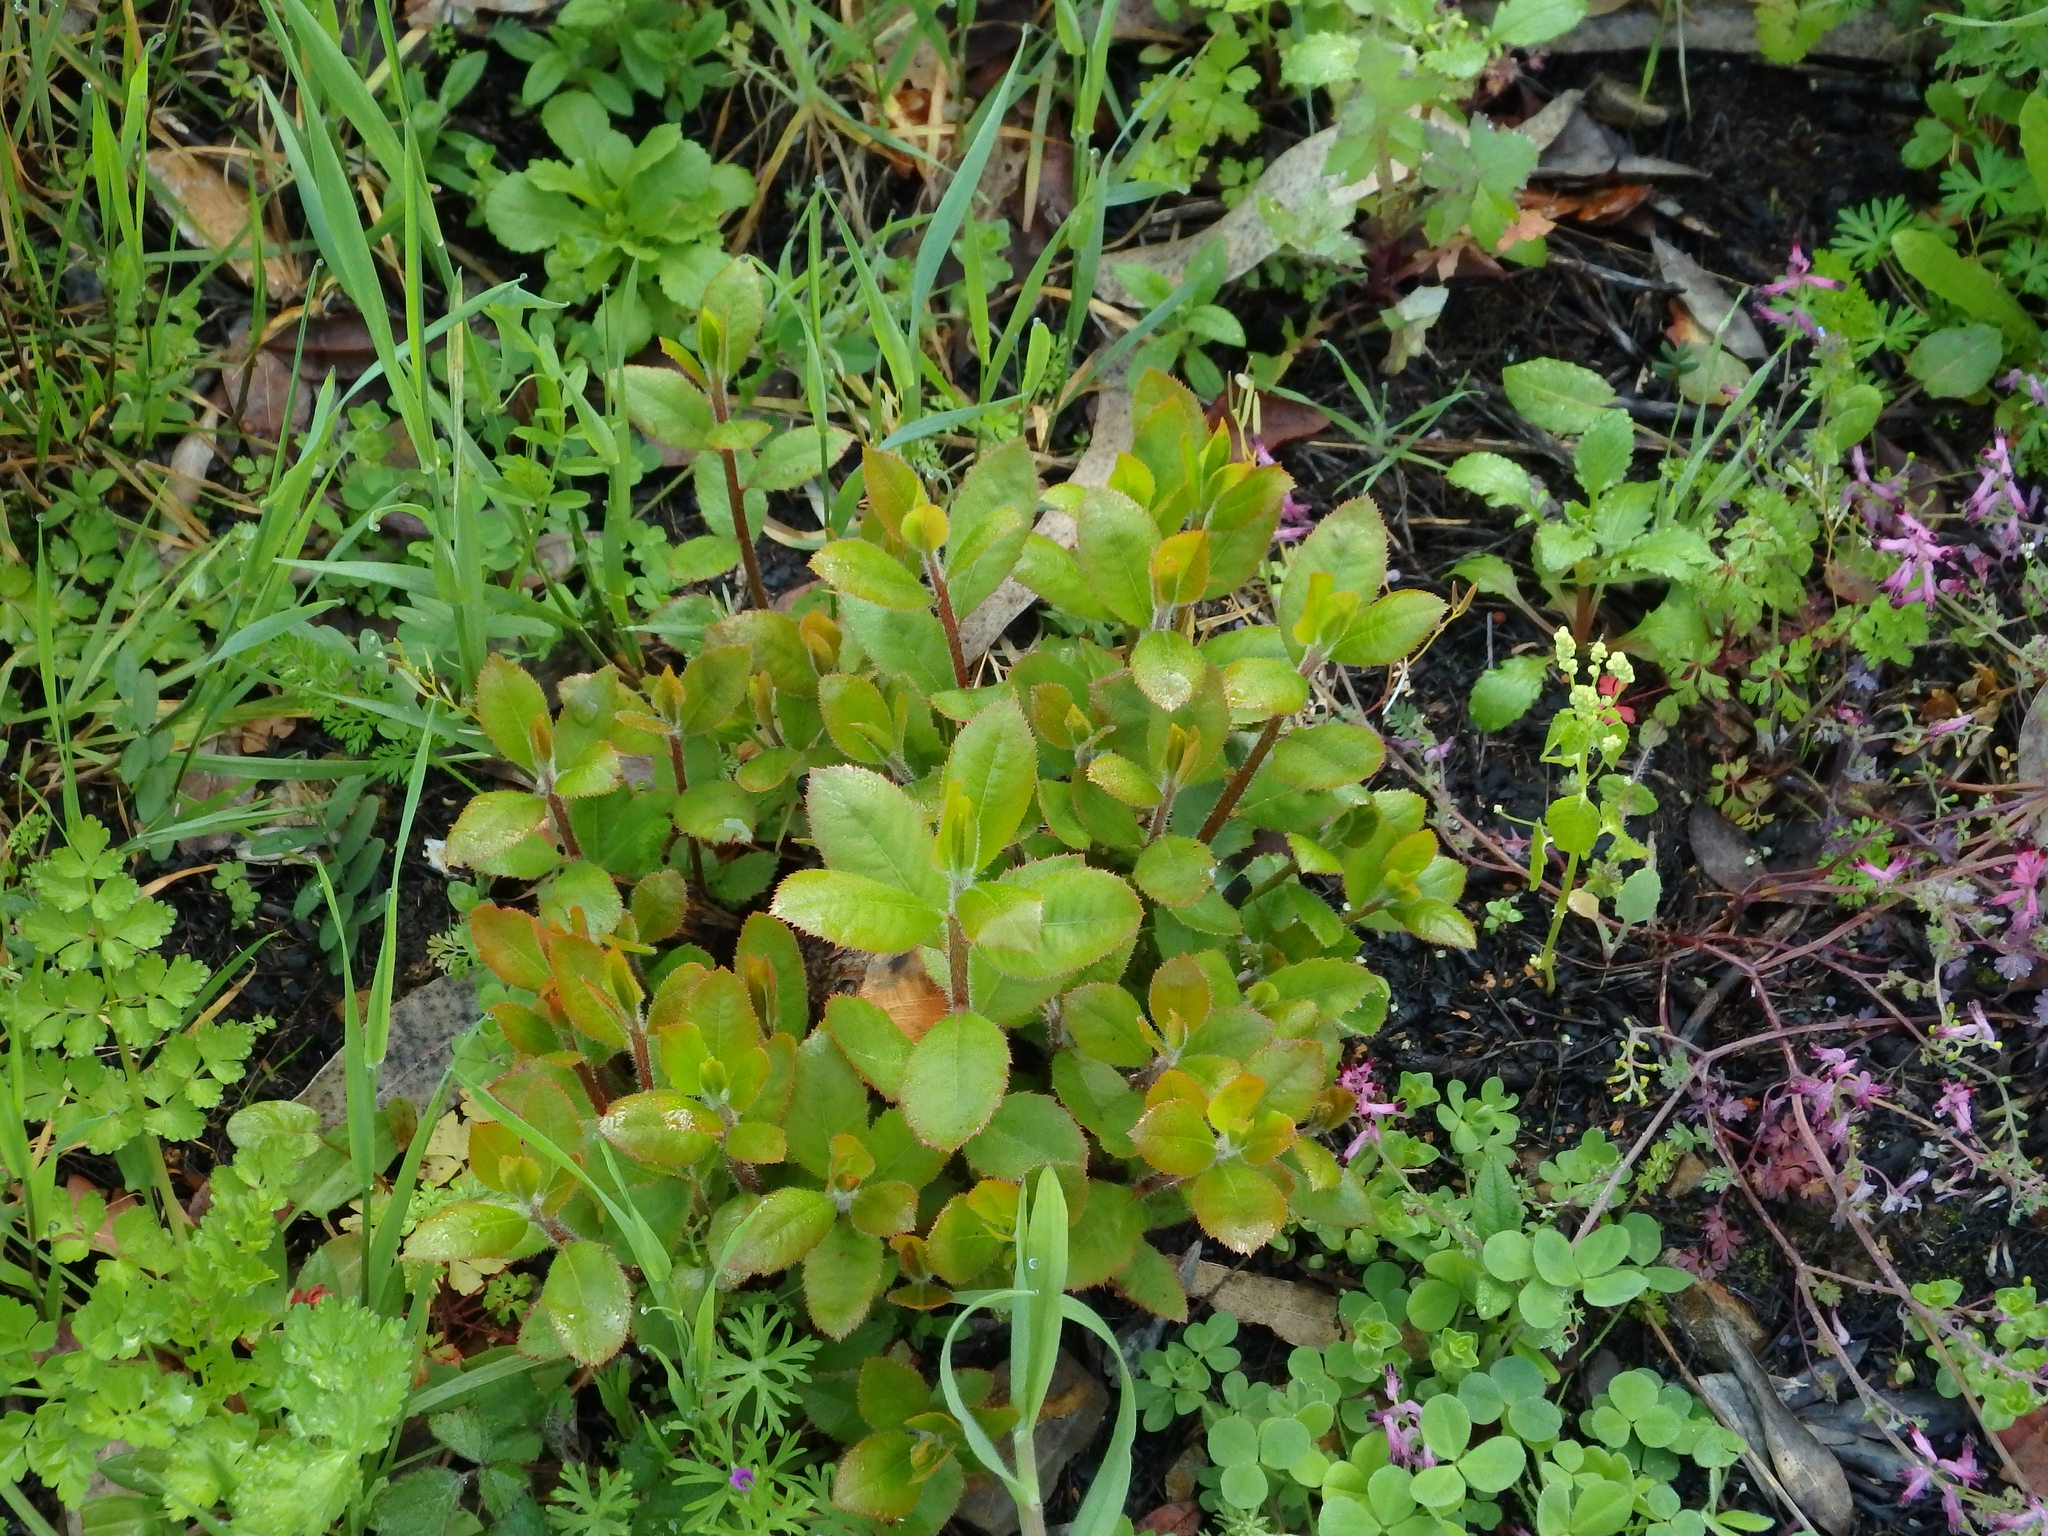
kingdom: Plantae
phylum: Tracheophyta
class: Magnoliopsida
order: Ericales
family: Ericaceae
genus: Arbutus
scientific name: Arbutus unedo
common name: Strawberry-tree
